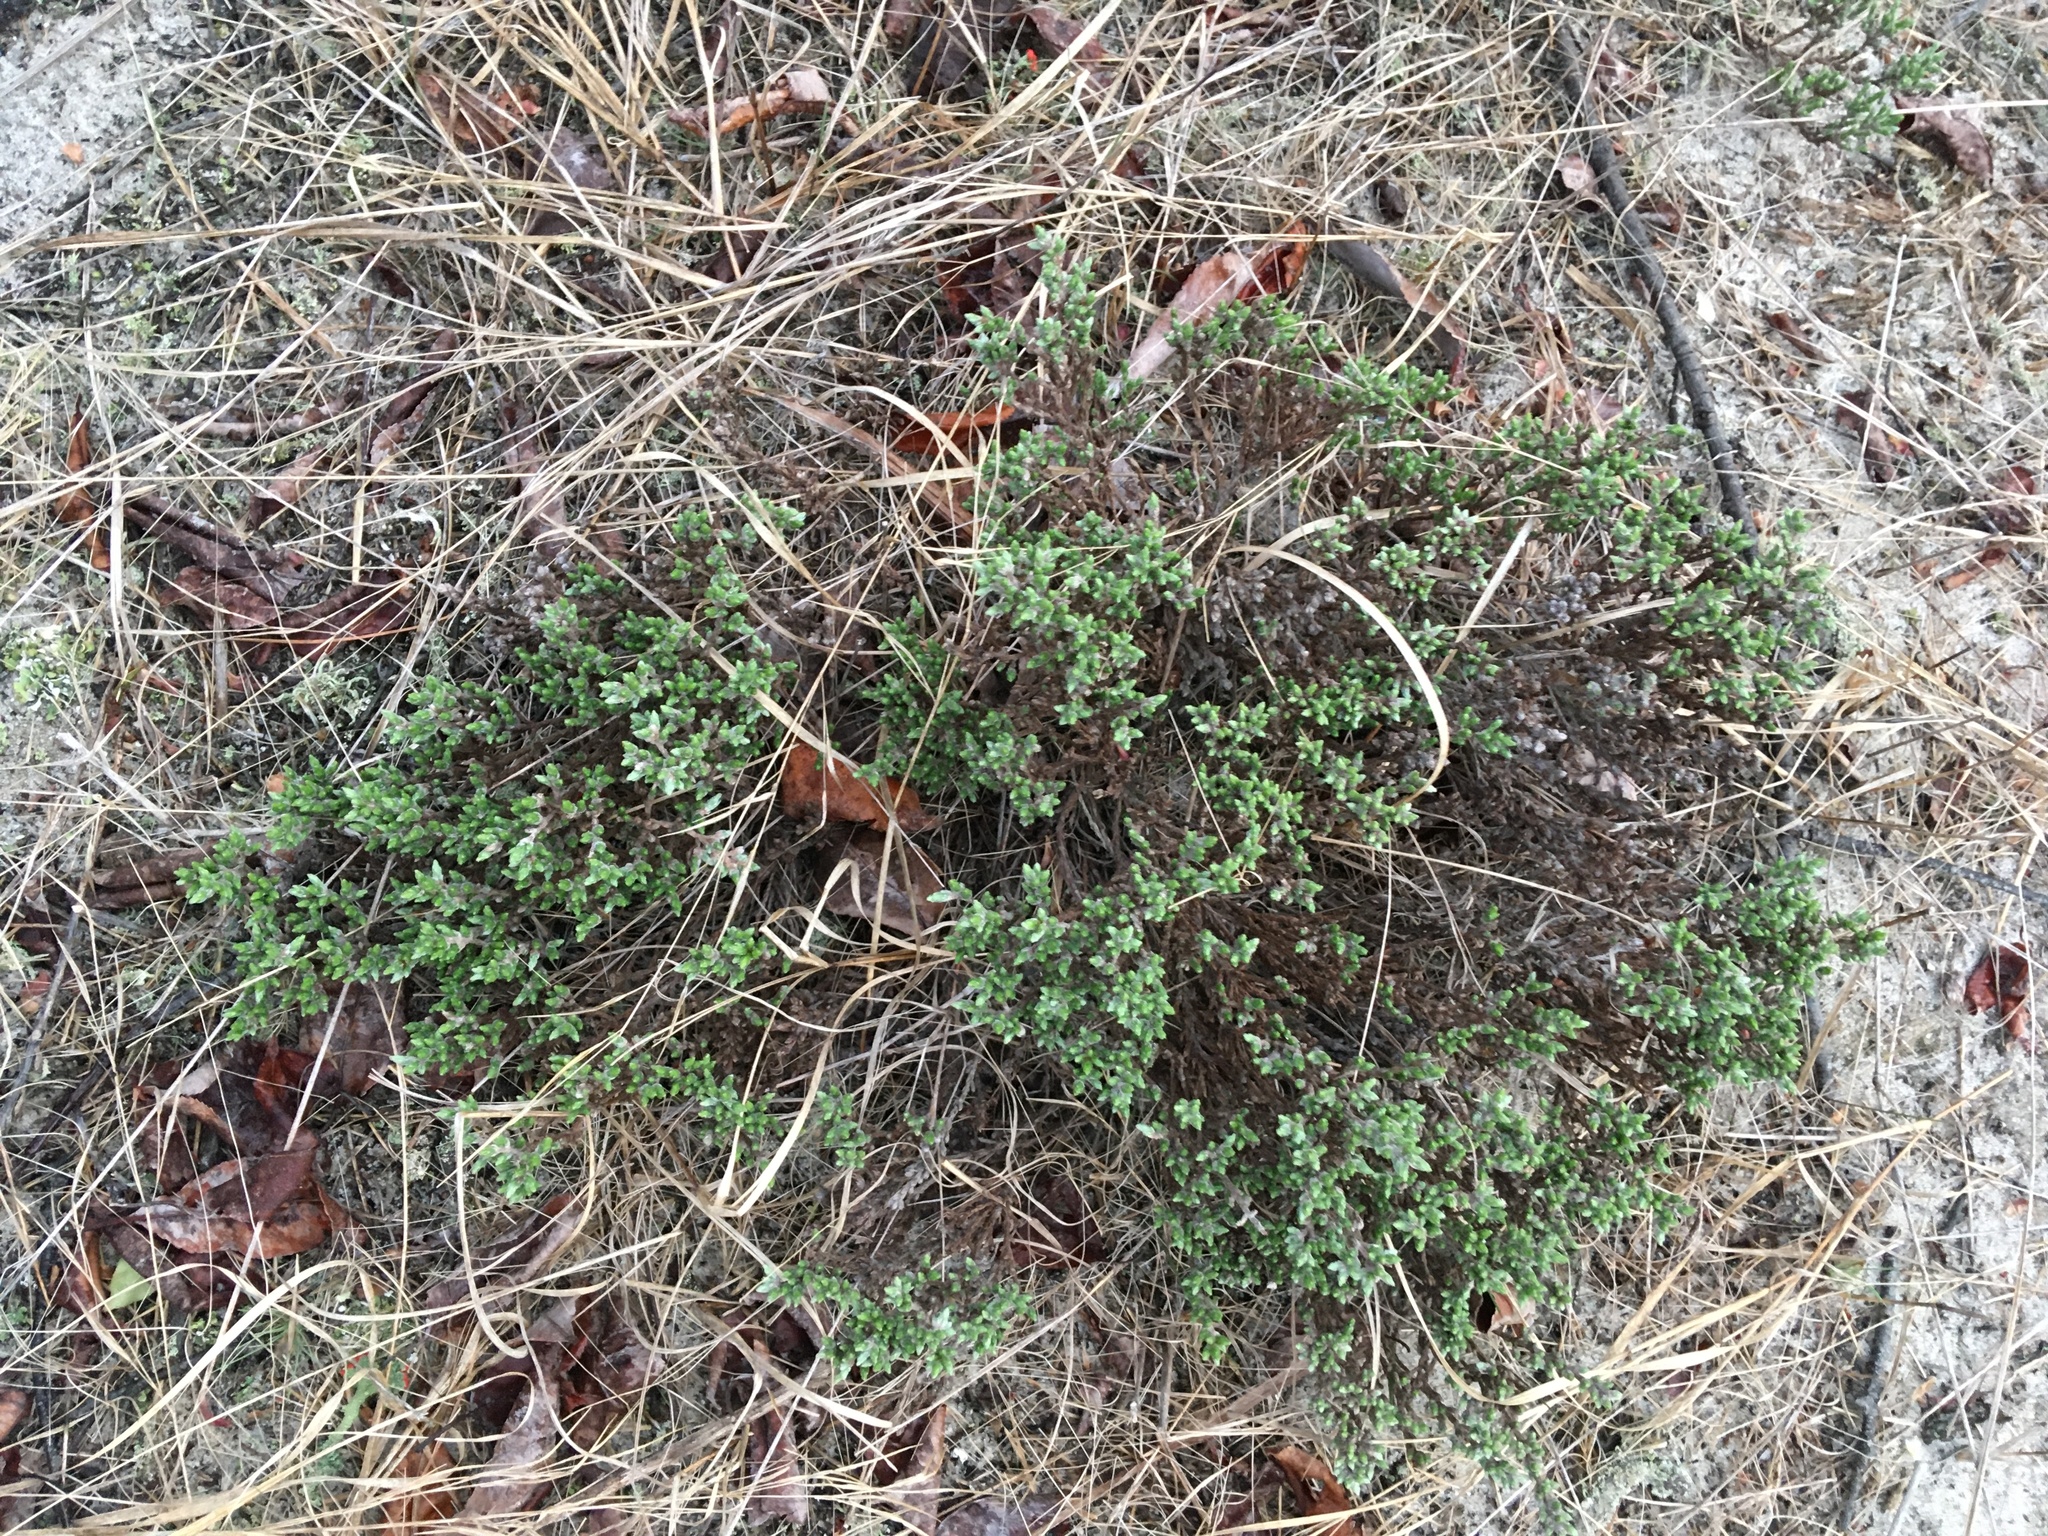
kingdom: Plantae
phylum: Tracheophyta
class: Magnoliopsida
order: Malvales
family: Cistaceae
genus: Hudsonia
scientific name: Hudsonia tomentosa
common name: Beach-heath
